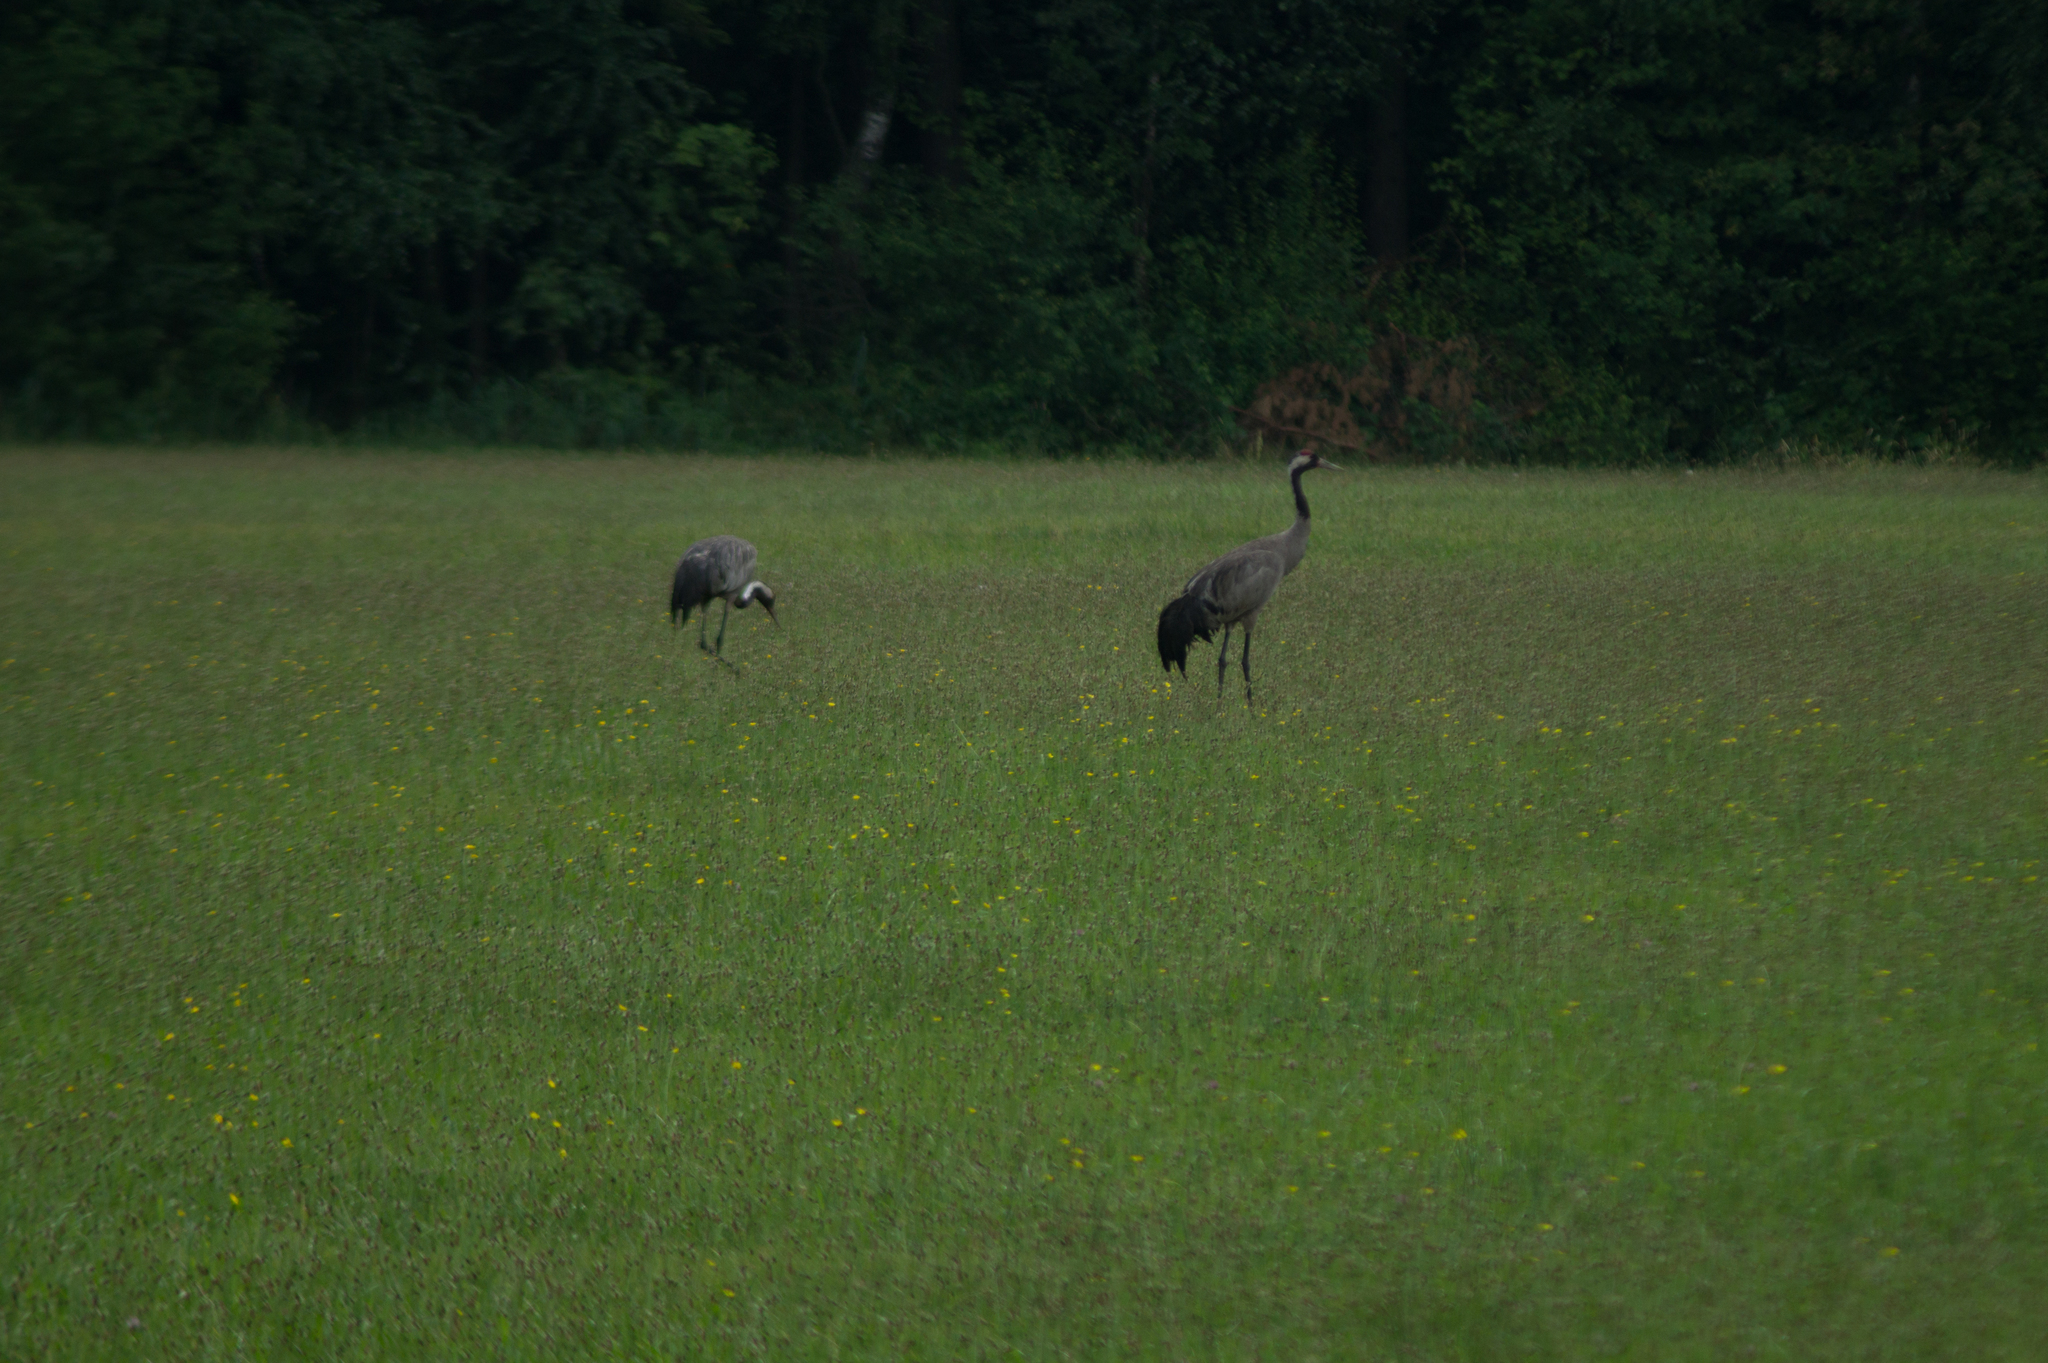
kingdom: Animalia
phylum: Chordata
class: Aves
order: Gruiformes
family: Gruidae
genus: Grus
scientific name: Grus grus
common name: Common crane
